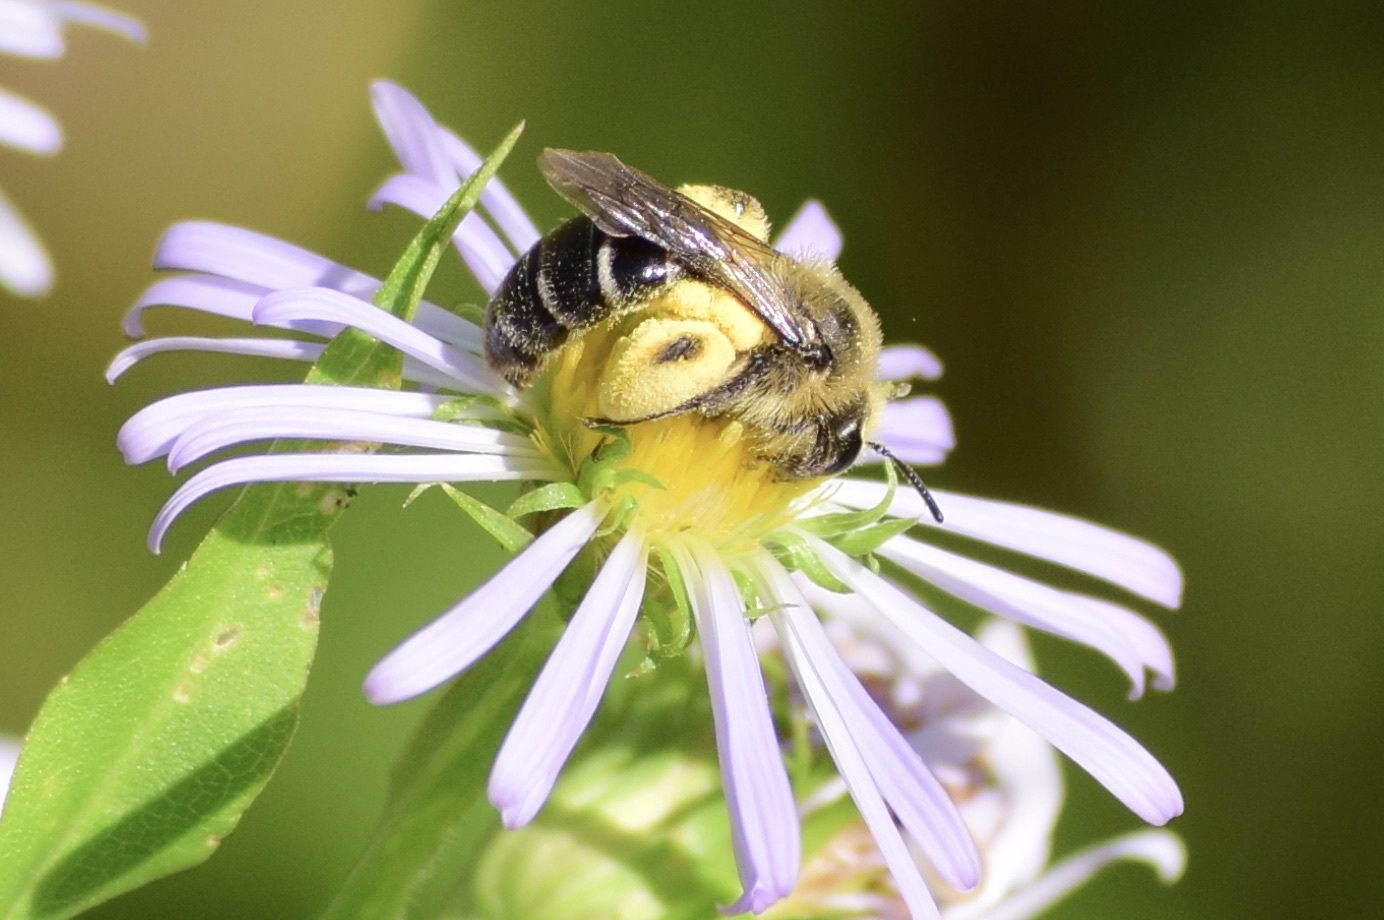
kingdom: Animalia
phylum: Arthropoda
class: Insecta
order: Hymenoptera
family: Andrenidae
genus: Andrena
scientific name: Andrena asteris
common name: Aster mining bee
